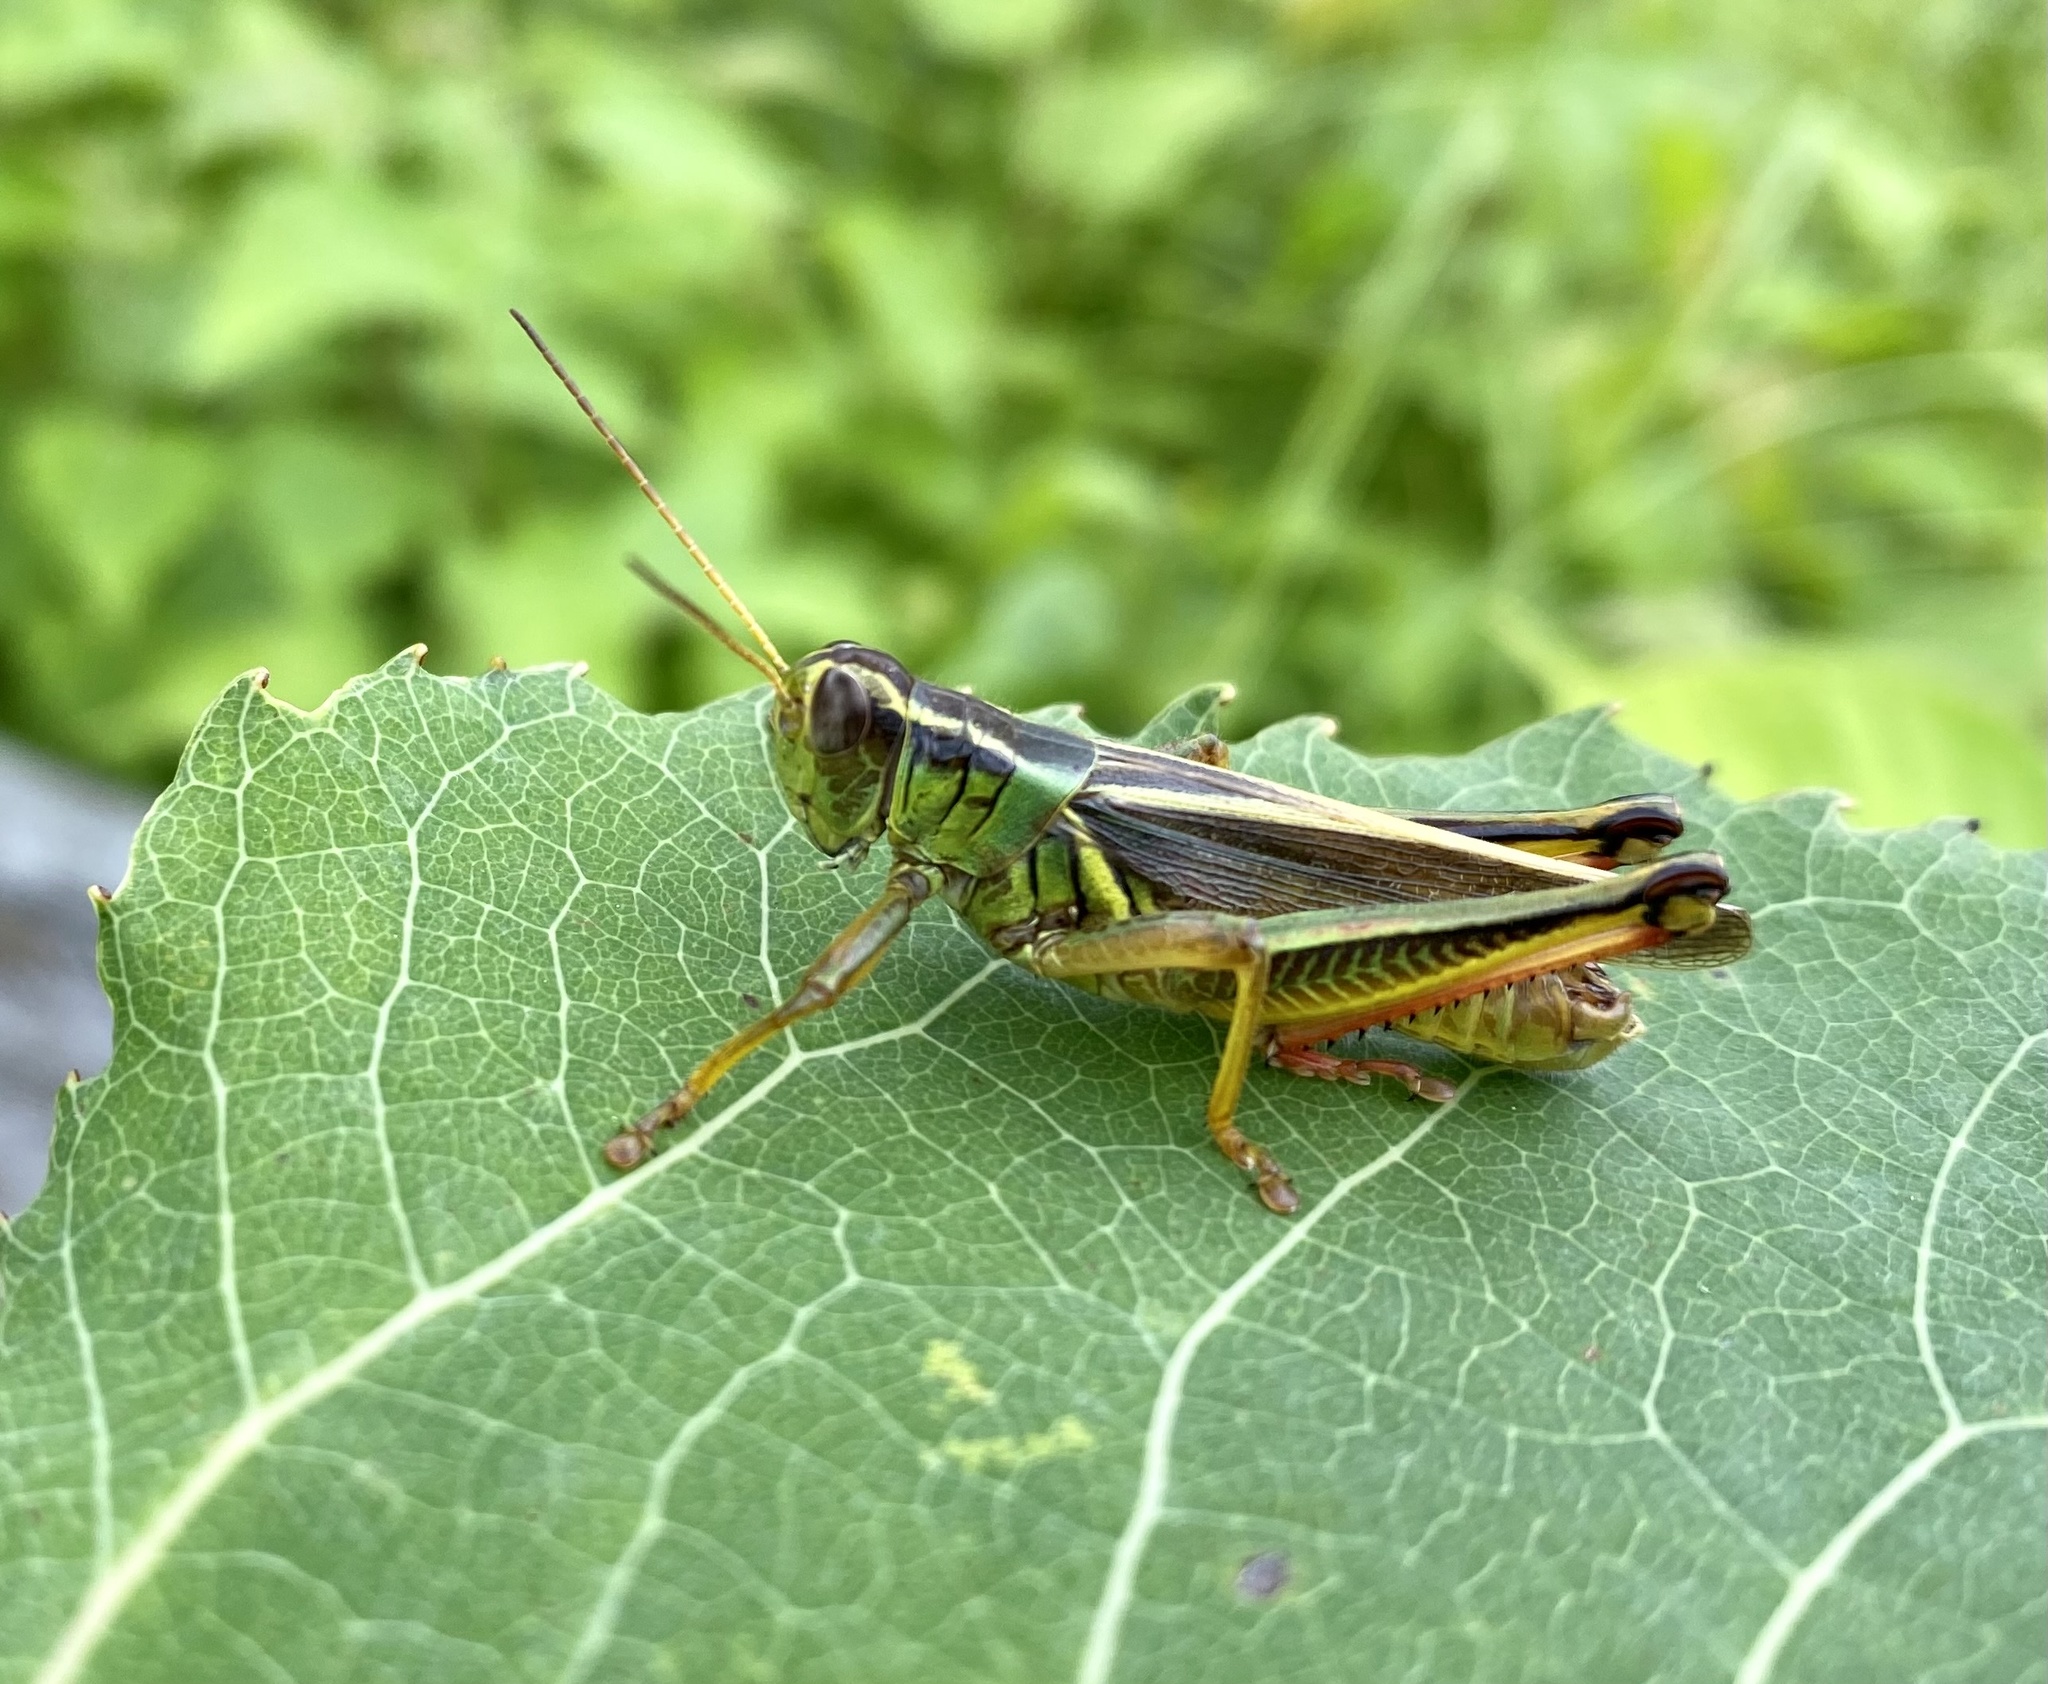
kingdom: Animalia
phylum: Arthropoda
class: Insecta
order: Orthoptera
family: Acrididae
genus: Melanoplus
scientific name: Melanoplus bivittatus
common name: Two-striped grasshopper
